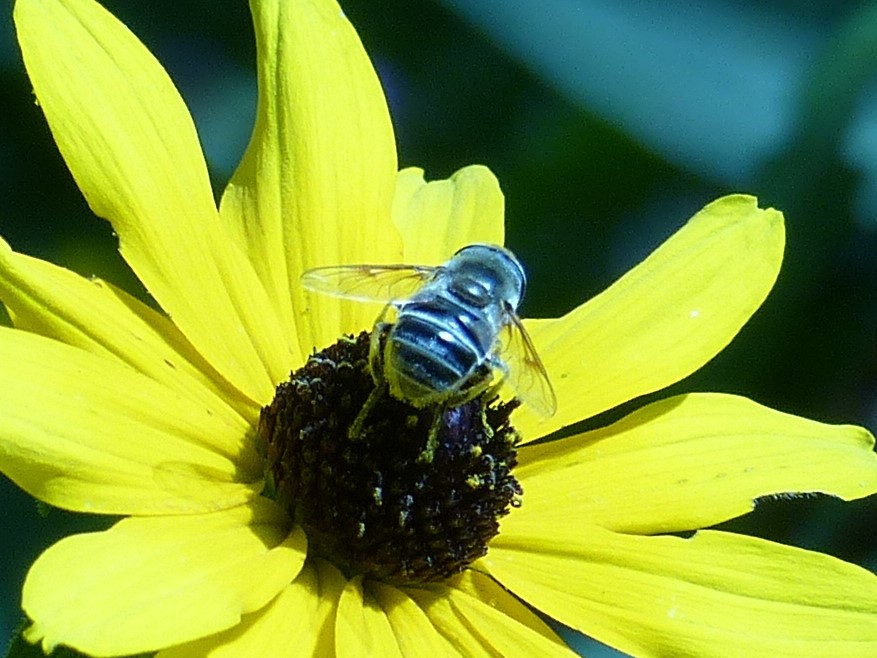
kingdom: Animalia
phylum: Arthropoda
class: Insecta
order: Diptera
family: Syrphidae
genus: Eristalis
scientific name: Eristalis stipator
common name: Yellow-shouldered drone fly
